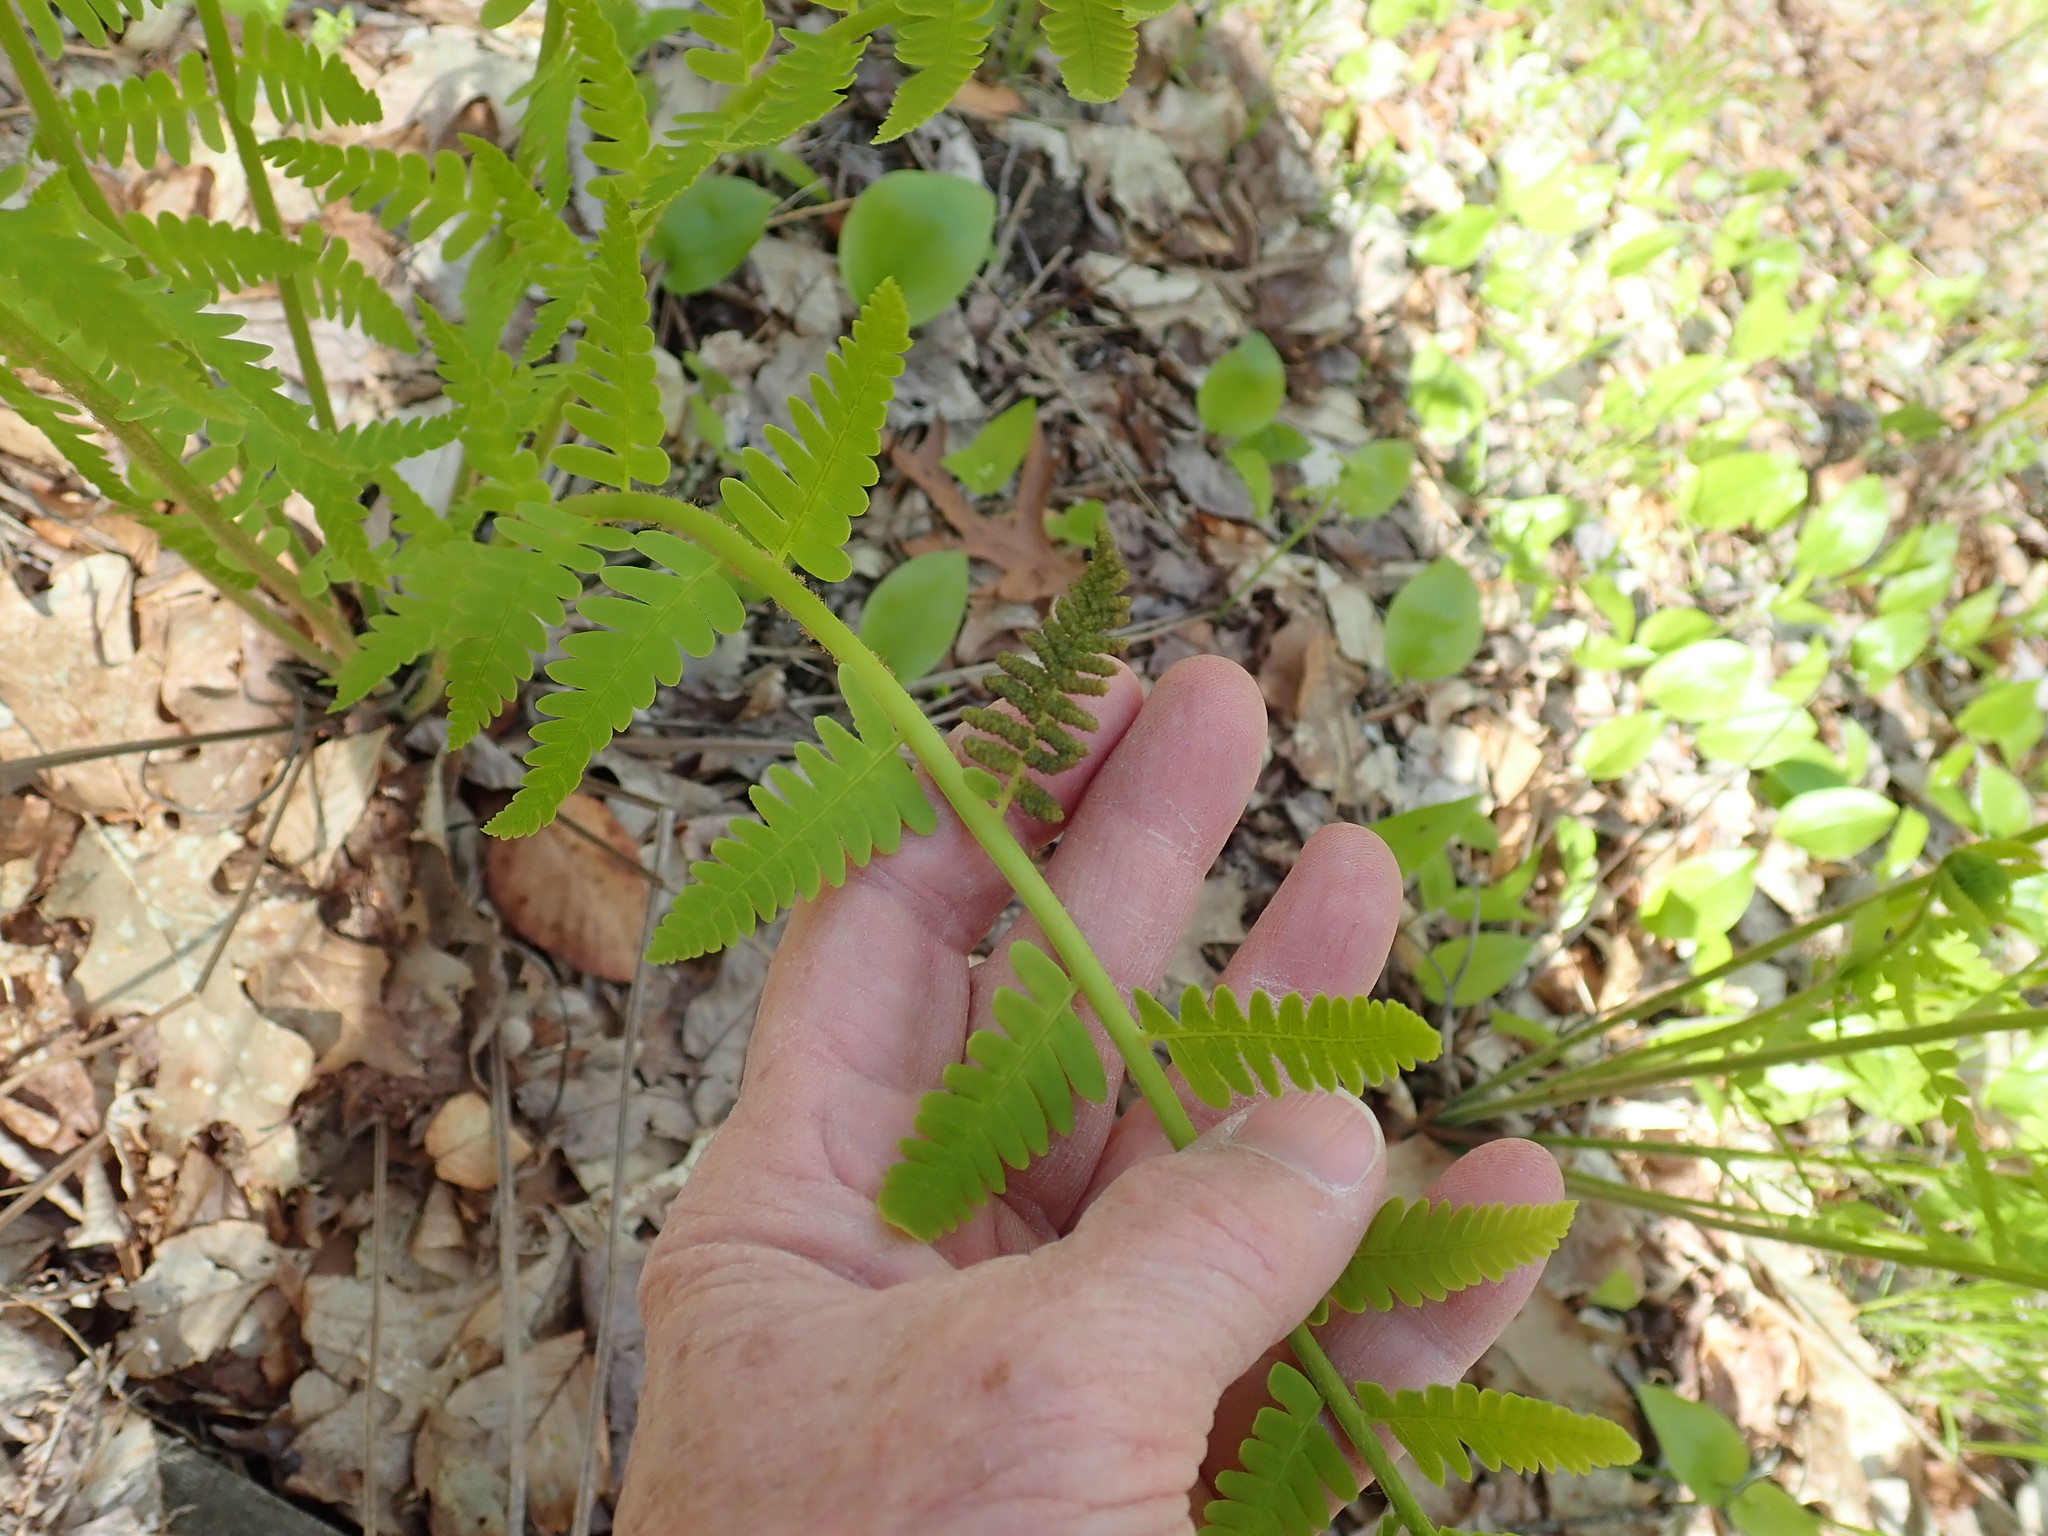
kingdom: Plantae
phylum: Tracheophyta
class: Polypodiopsida
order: Osmundales
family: Osmundaceae
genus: Claytosmunda
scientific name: Claytosmunda claytoniana
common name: Clayton's fern
